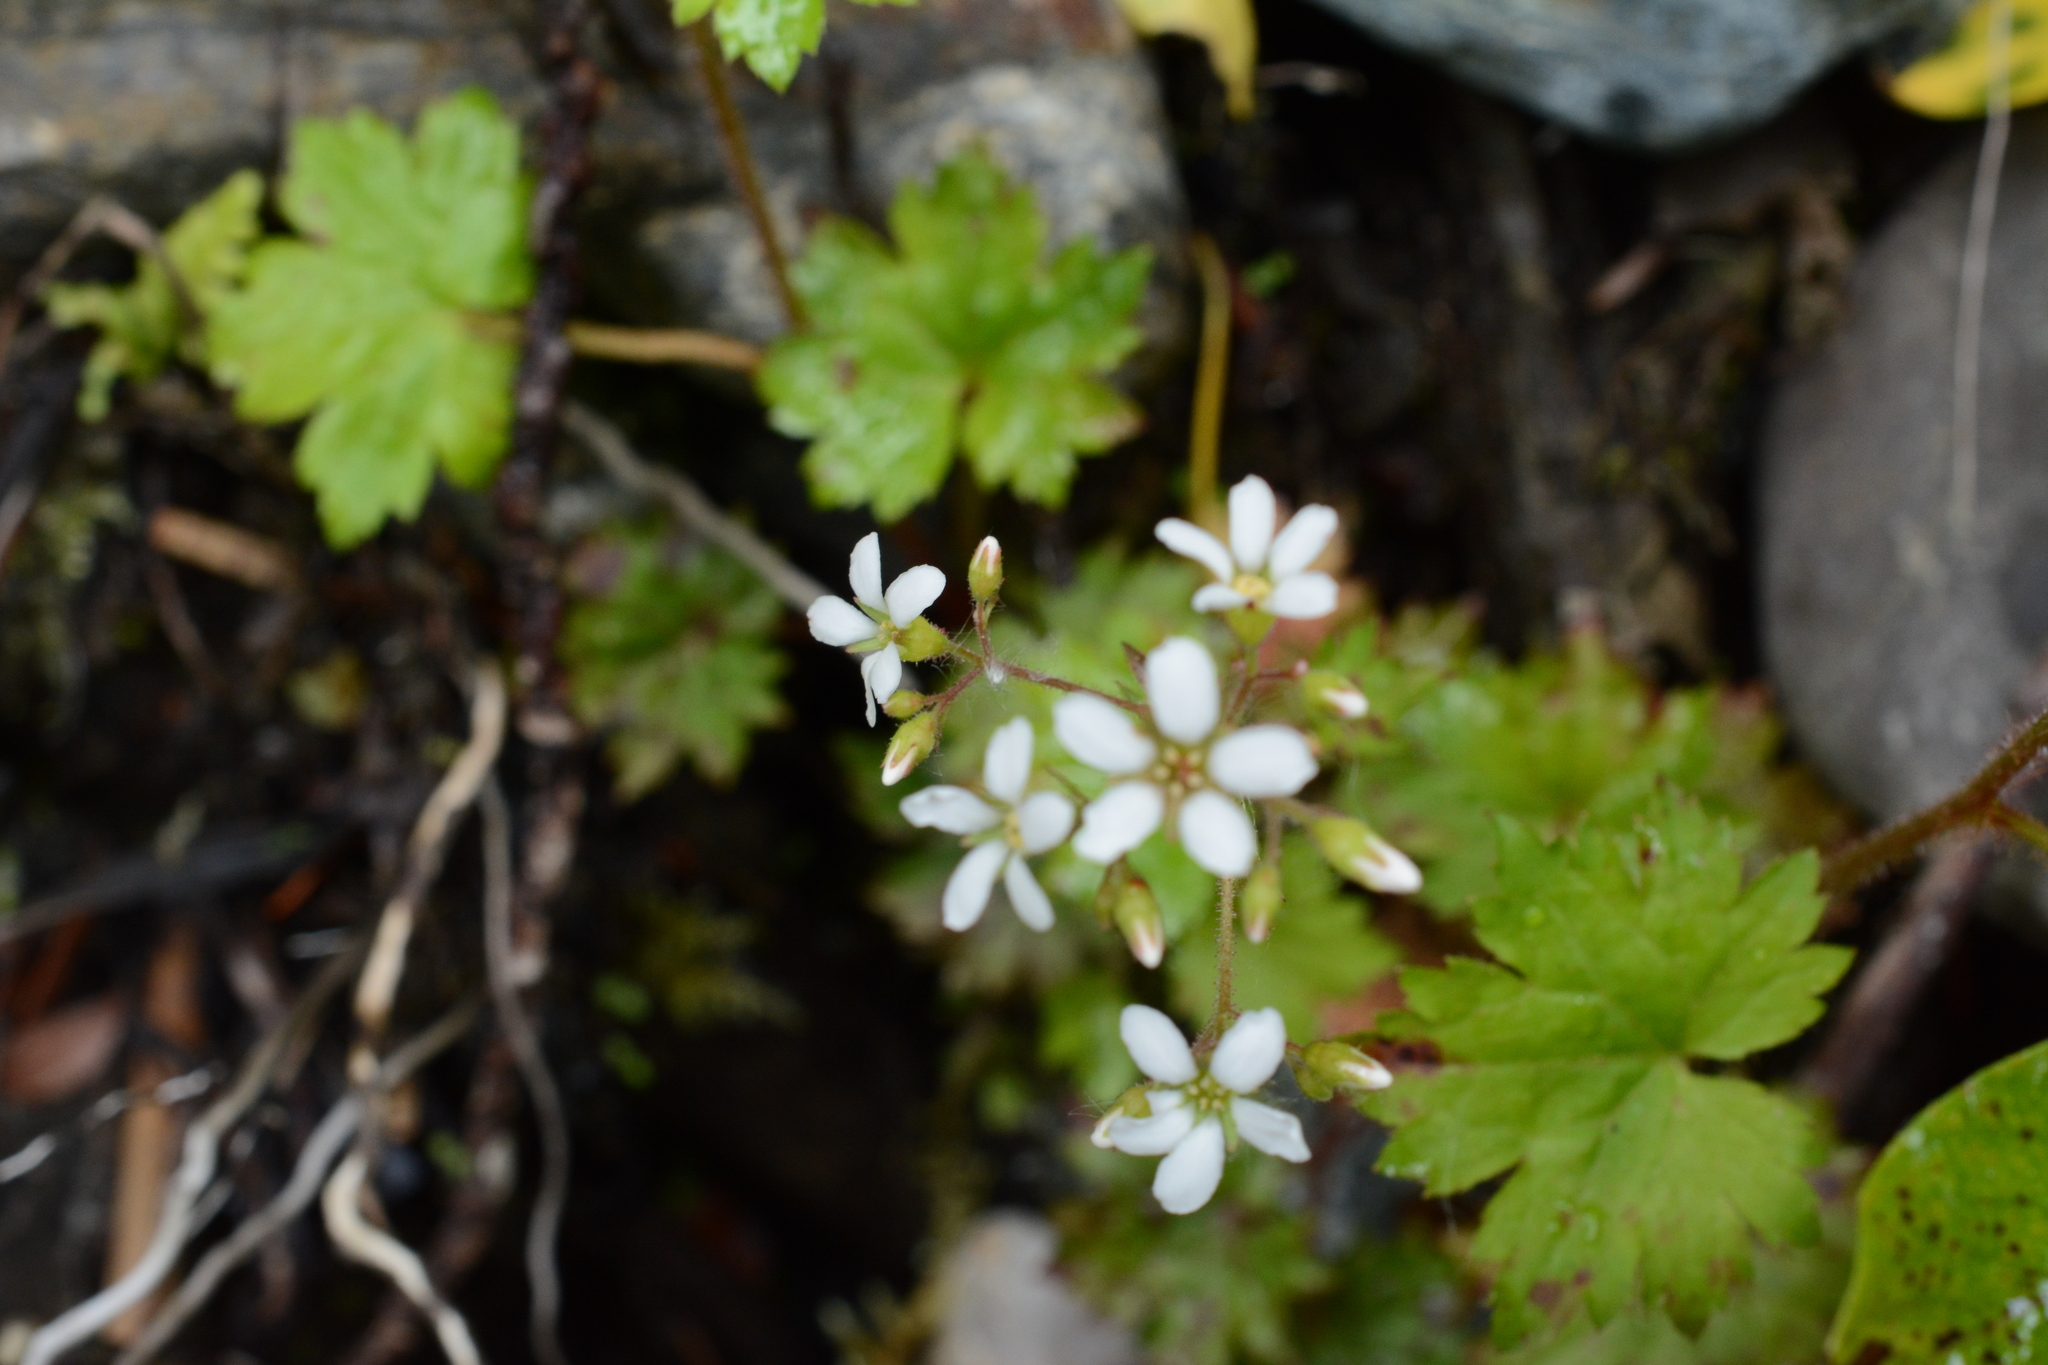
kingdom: Plantae
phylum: Tracheophyta
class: Magnoliopsida
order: Saxifragales
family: Saxifragaceae
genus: Boykinia
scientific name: Boykinia occidentalis
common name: Coast boykinia
